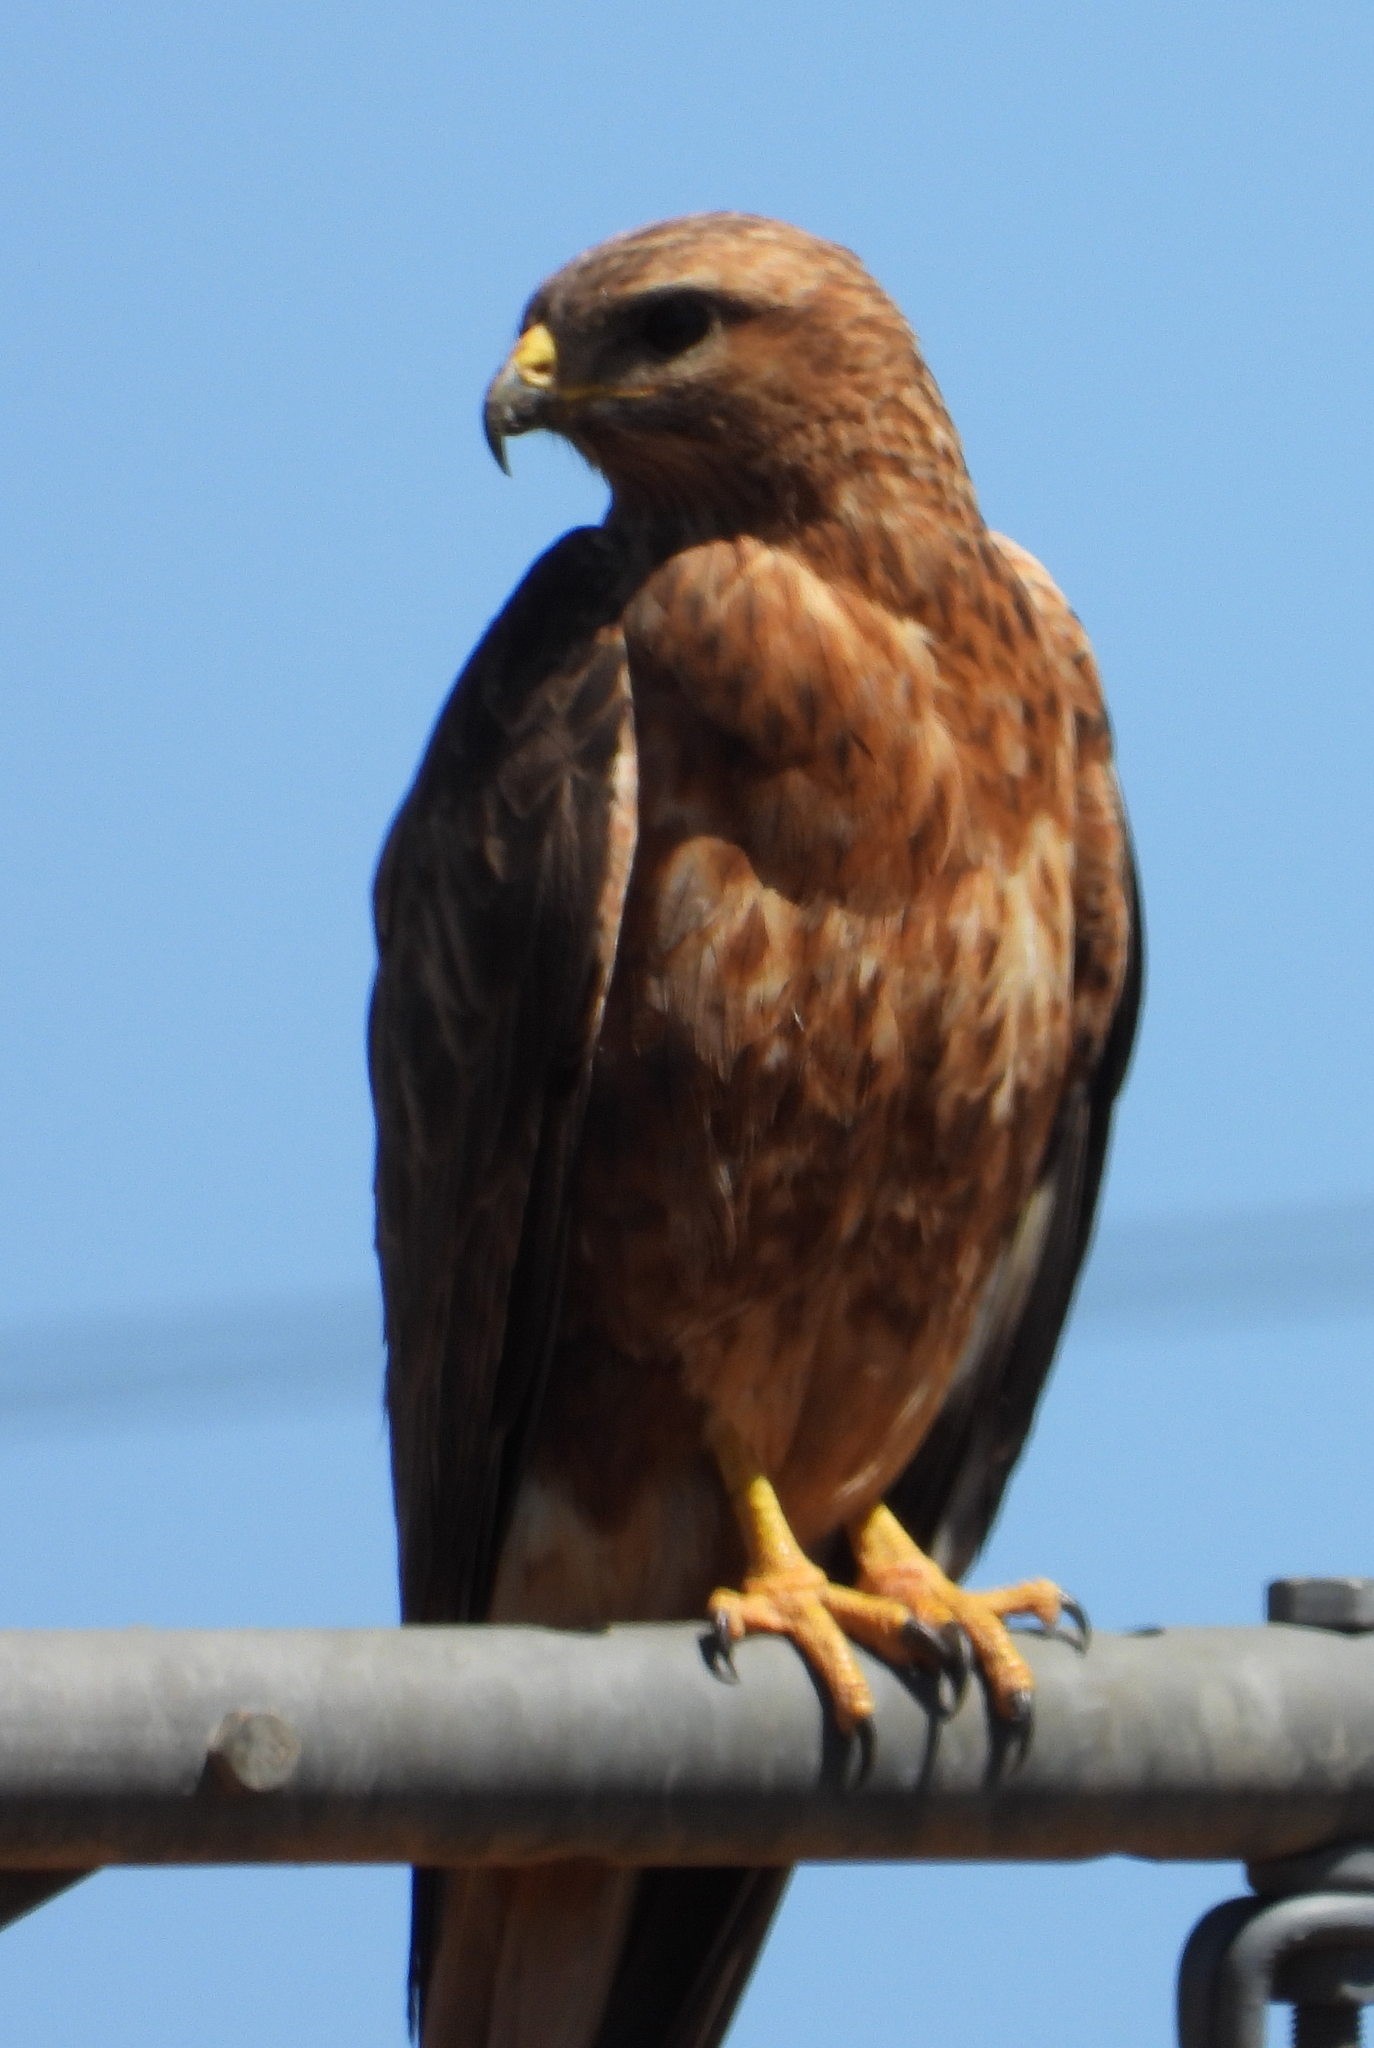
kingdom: Animalia
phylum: Chordata
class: Aves
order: Accipitriformes
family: Accipitridae
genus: Buteo
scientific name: Buteo buteo
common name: Common buzzard
